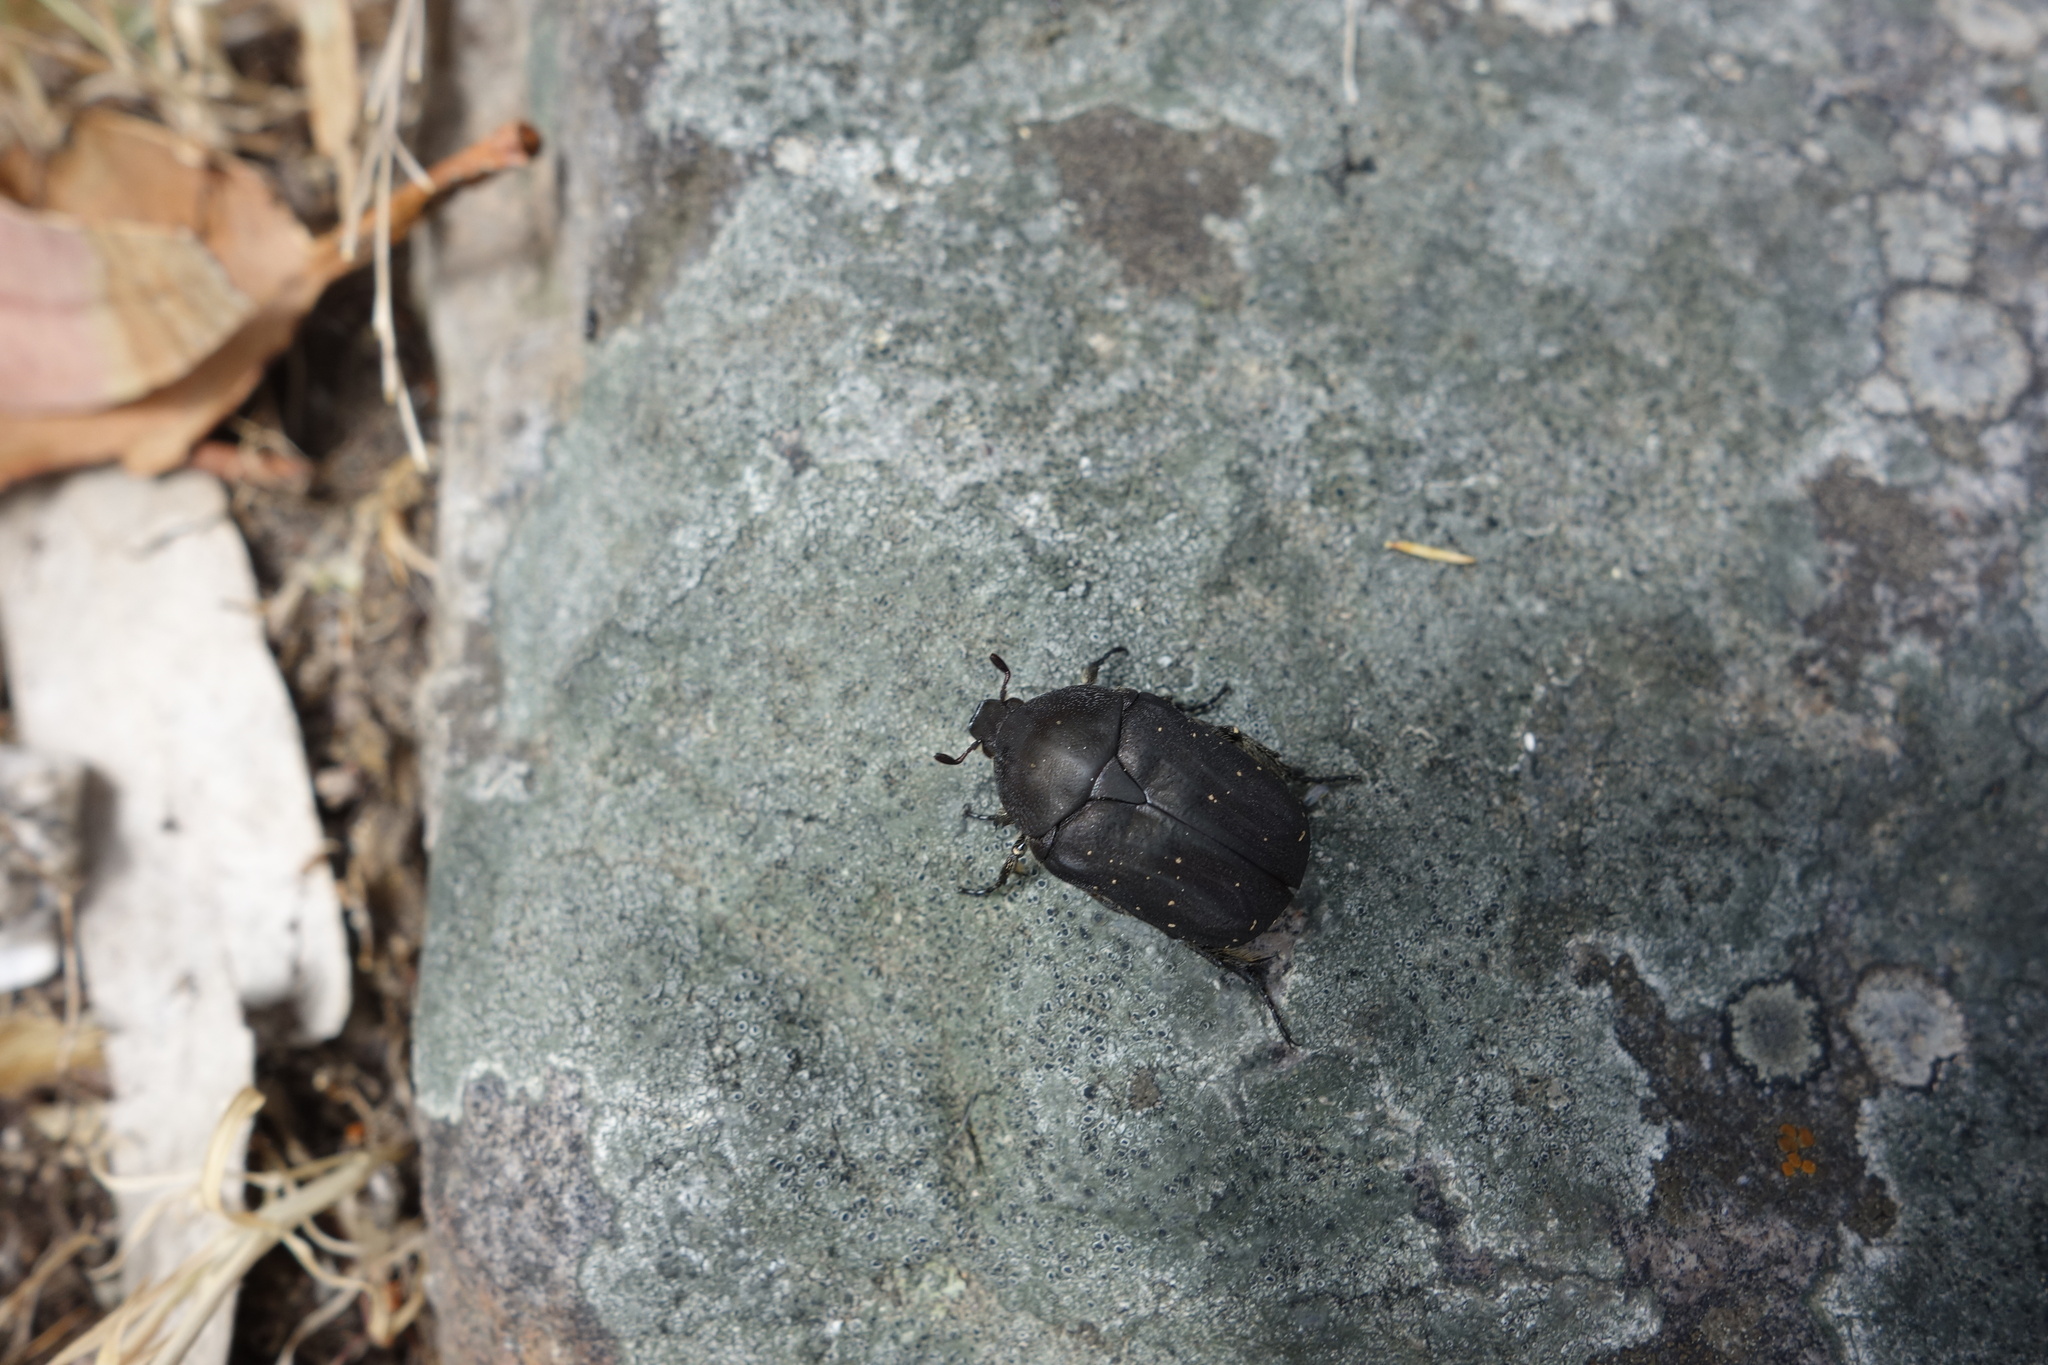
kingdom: Animalia
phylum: Arthropoda
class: Insecta
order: Coleoptera
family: Scarabaeidae
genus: Protaetia
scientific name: Protaetia morio
